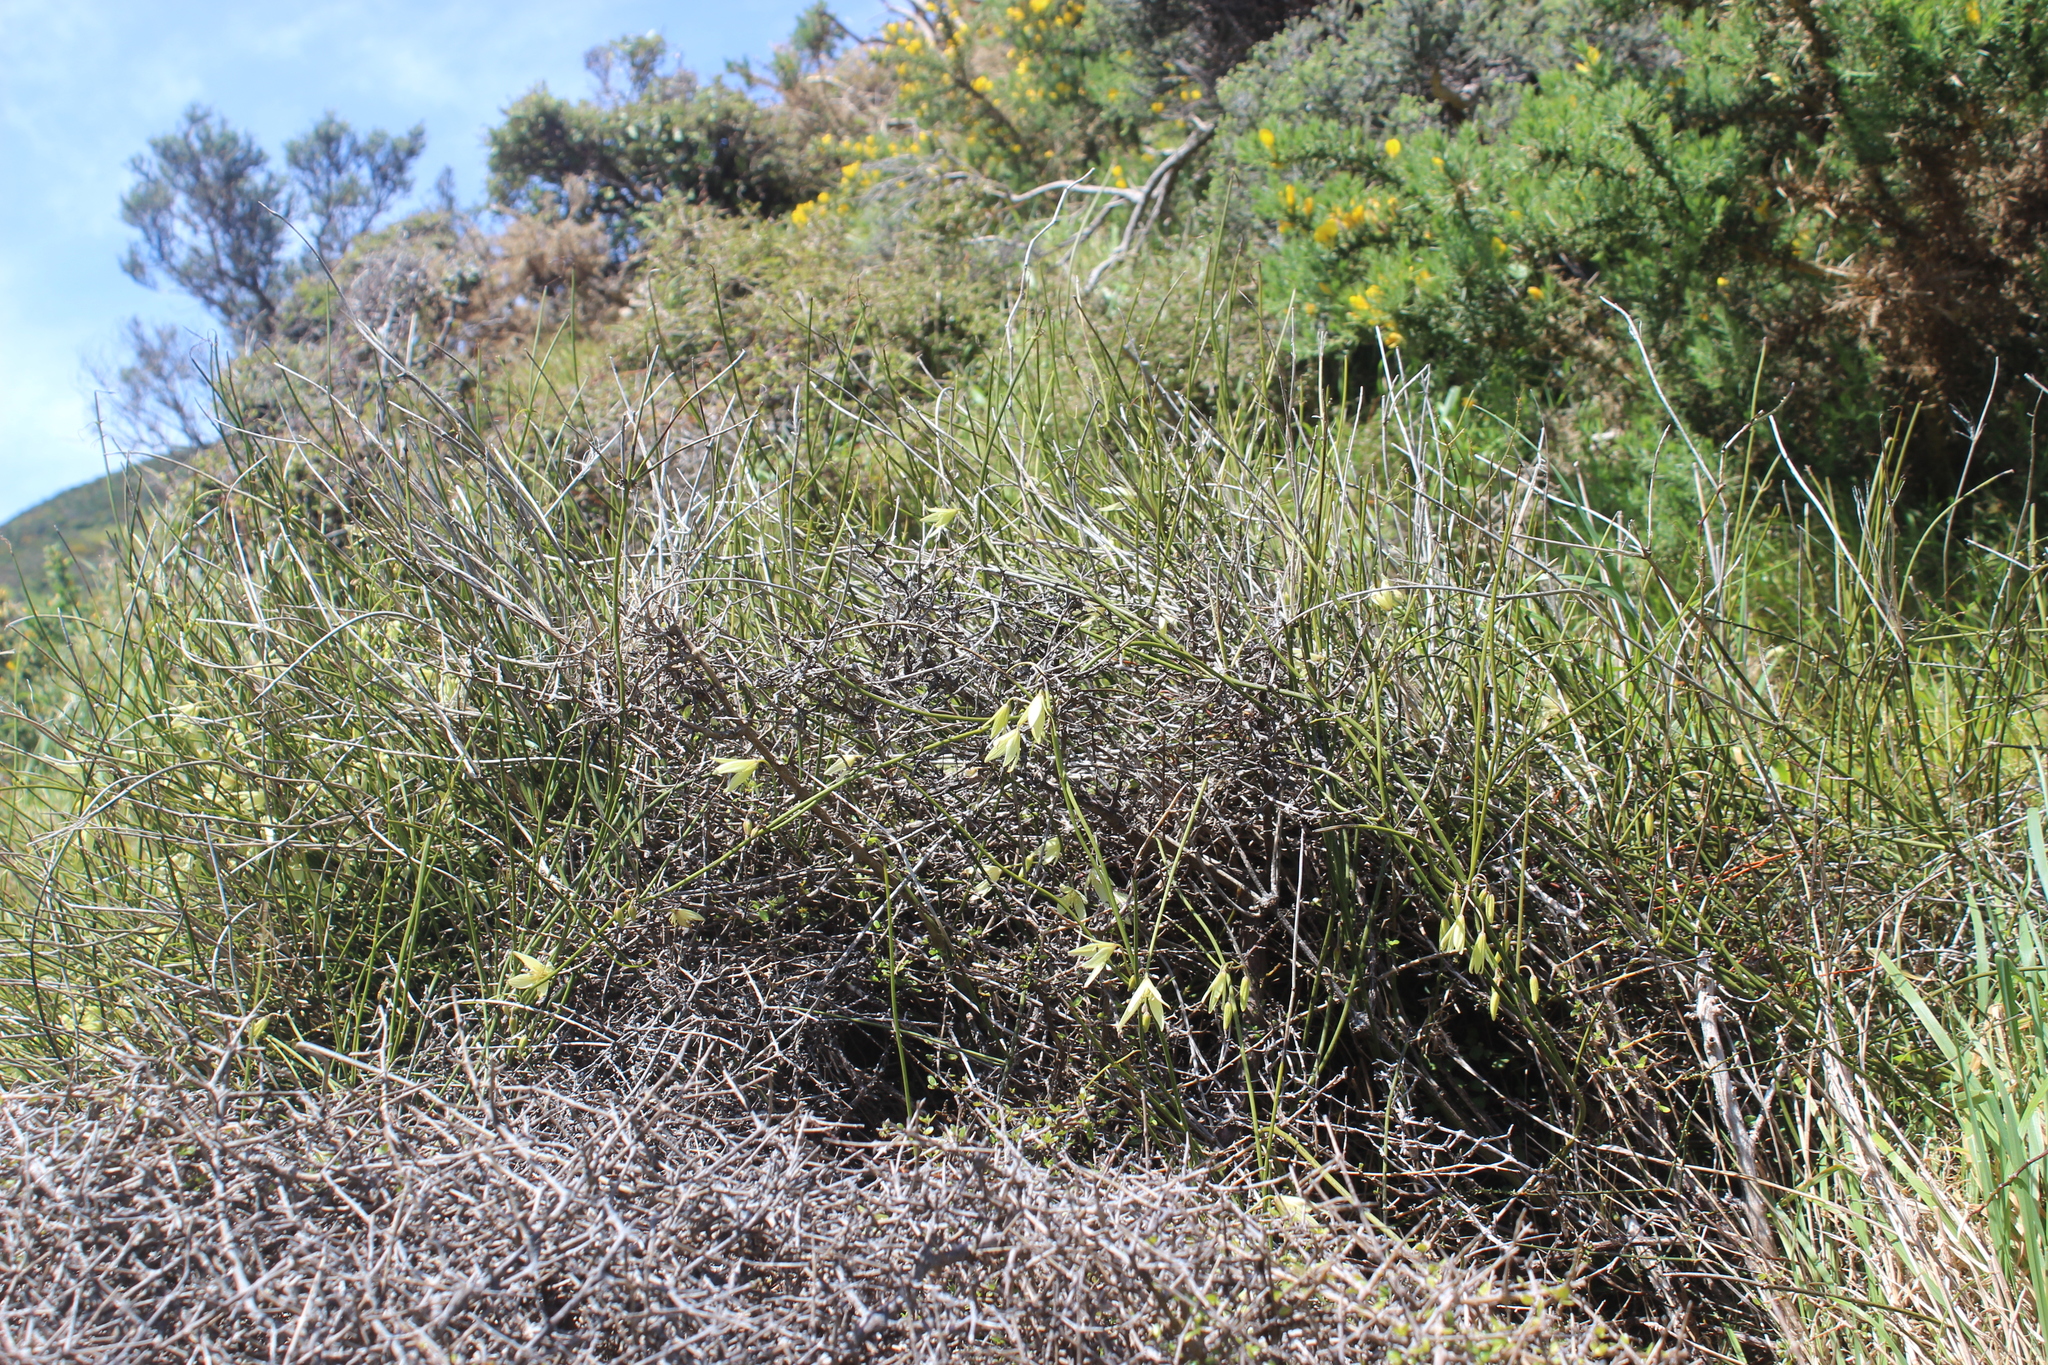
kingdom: Plantae
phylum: Tracheophyta
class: Magnoliopsida
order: Ranunculales
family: Ranunculaceae
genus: Clematis
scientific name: Clematis afoliata
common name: Rush-stem clematis
